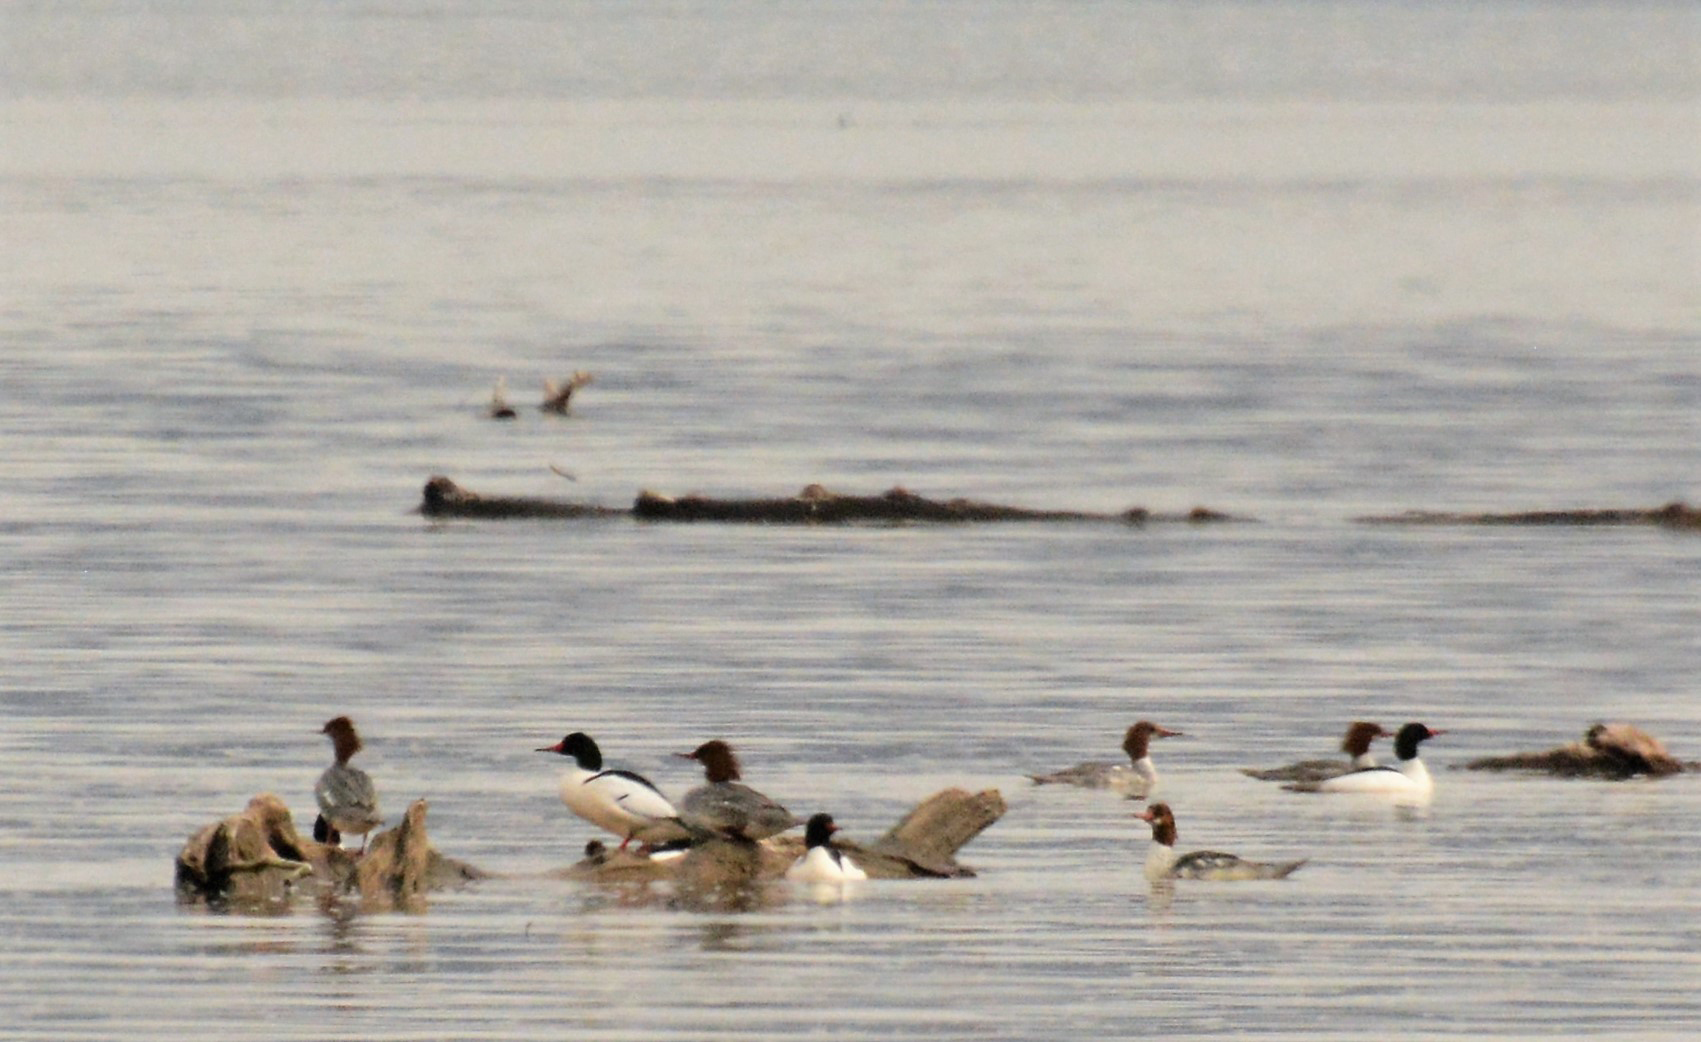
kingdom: Animalia
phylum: Chordata
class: Aves
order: Anseriformes
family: Anatidae
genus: Mergus
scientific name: Mergus merganser
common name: Common merganser
